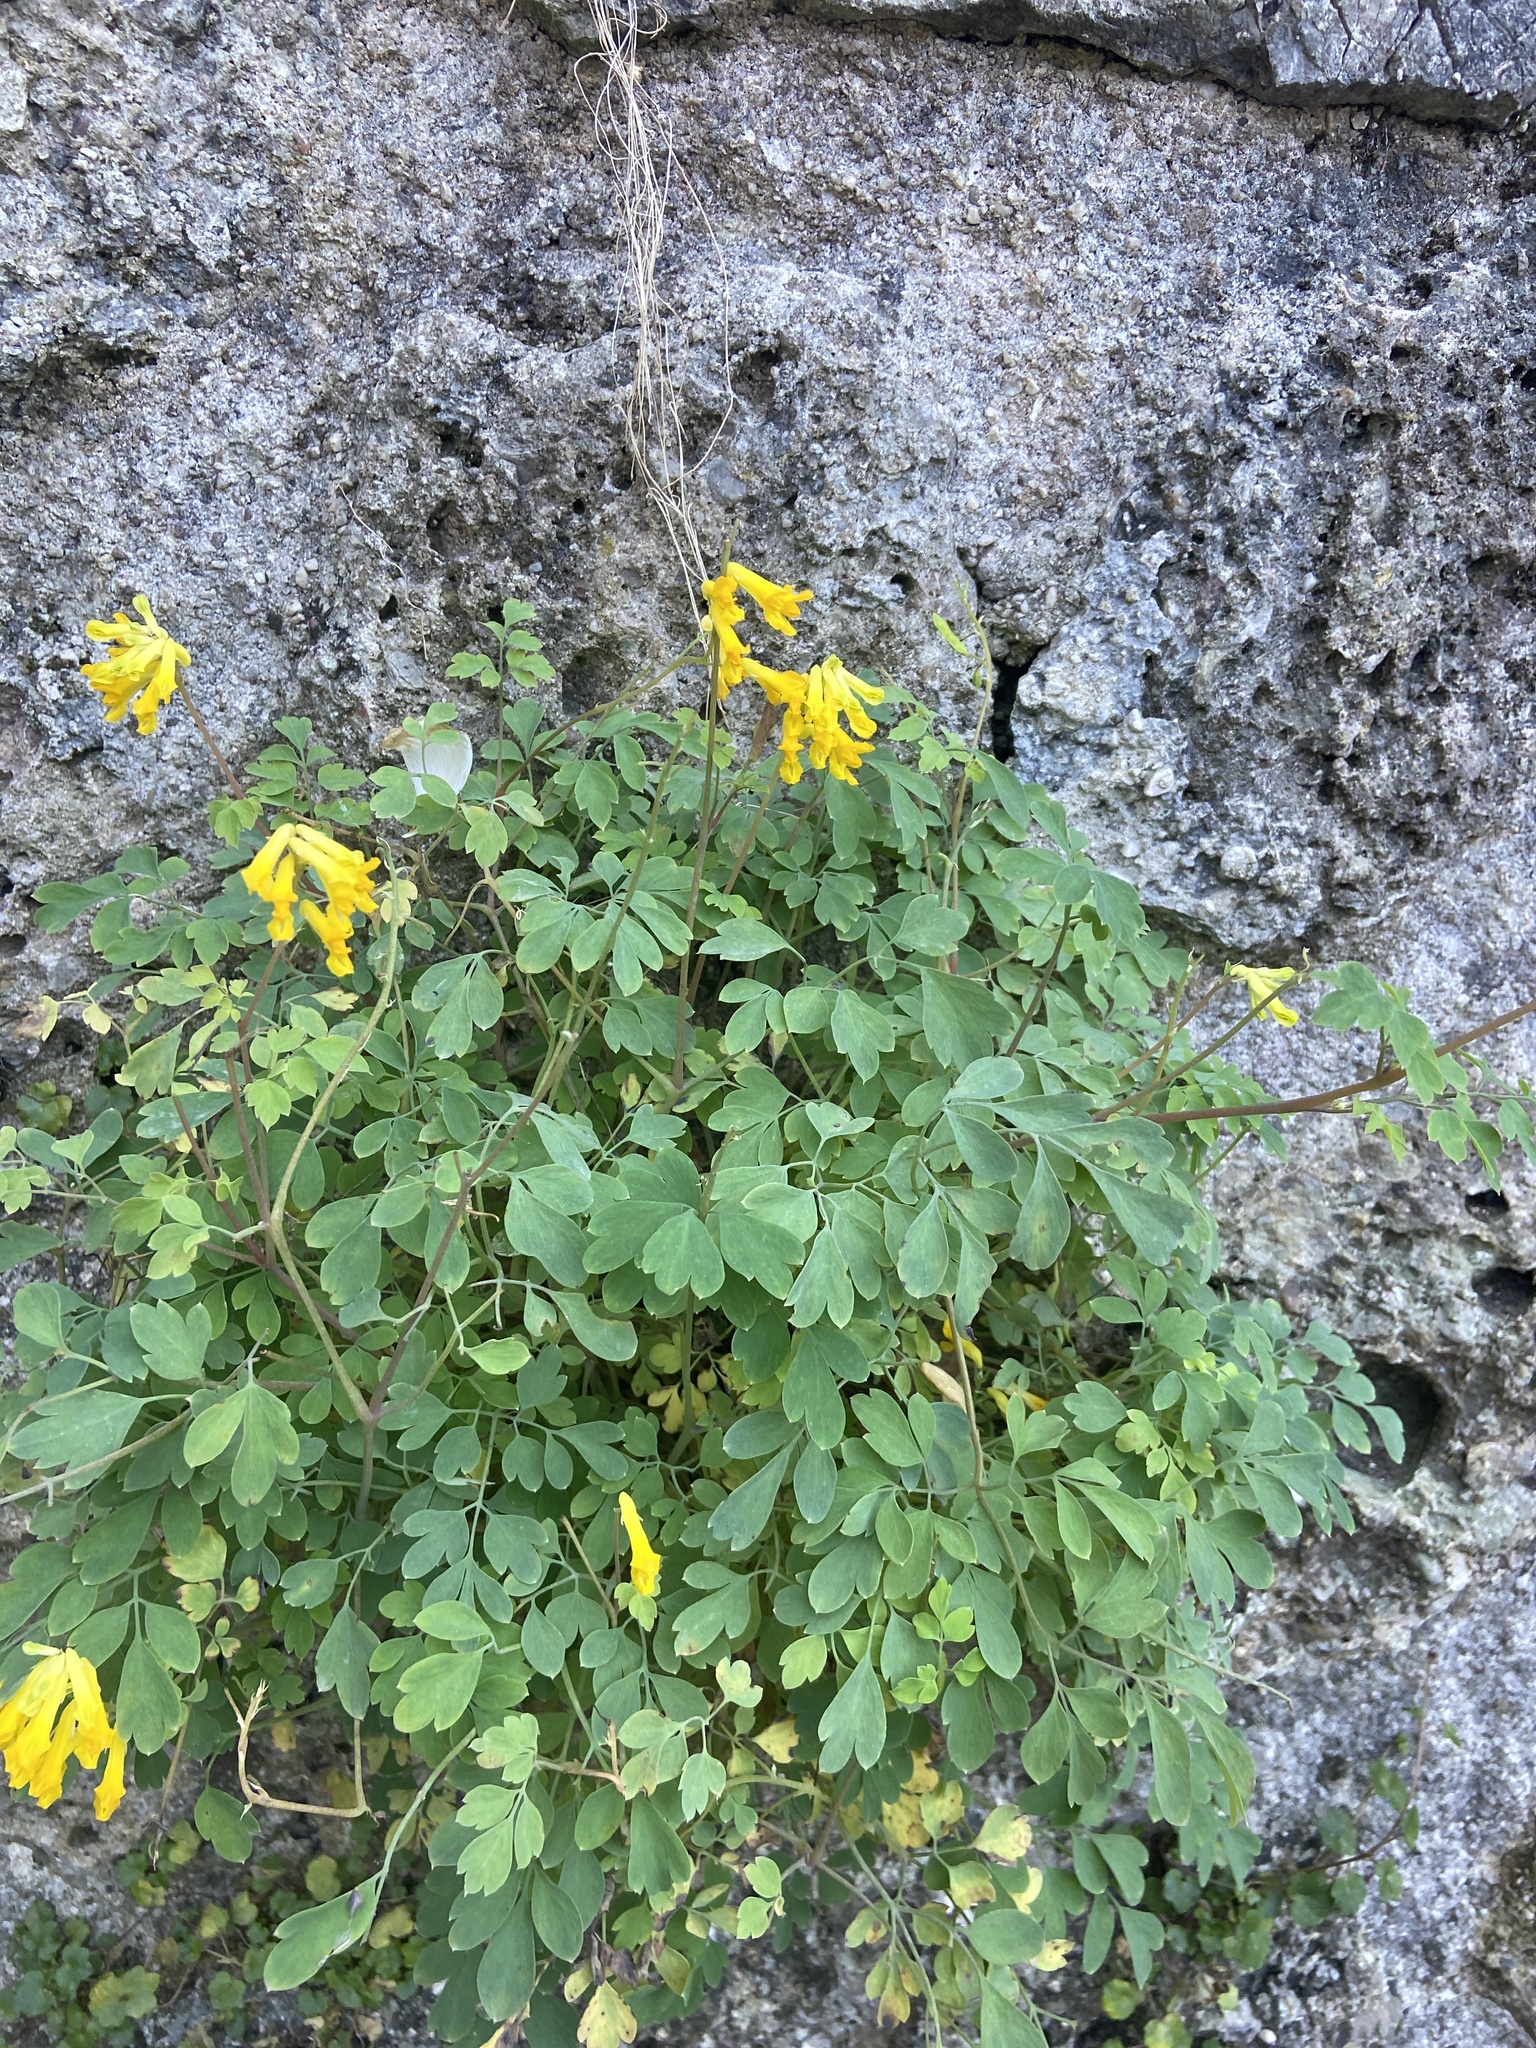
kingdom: Plantae
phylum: Tracheophyta
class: Magnoliopsida
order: Ranunculales
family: Papaveraceae
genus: Pseudofumaria
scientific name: Pseudofumaria lutea
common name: Yellow corydalis
